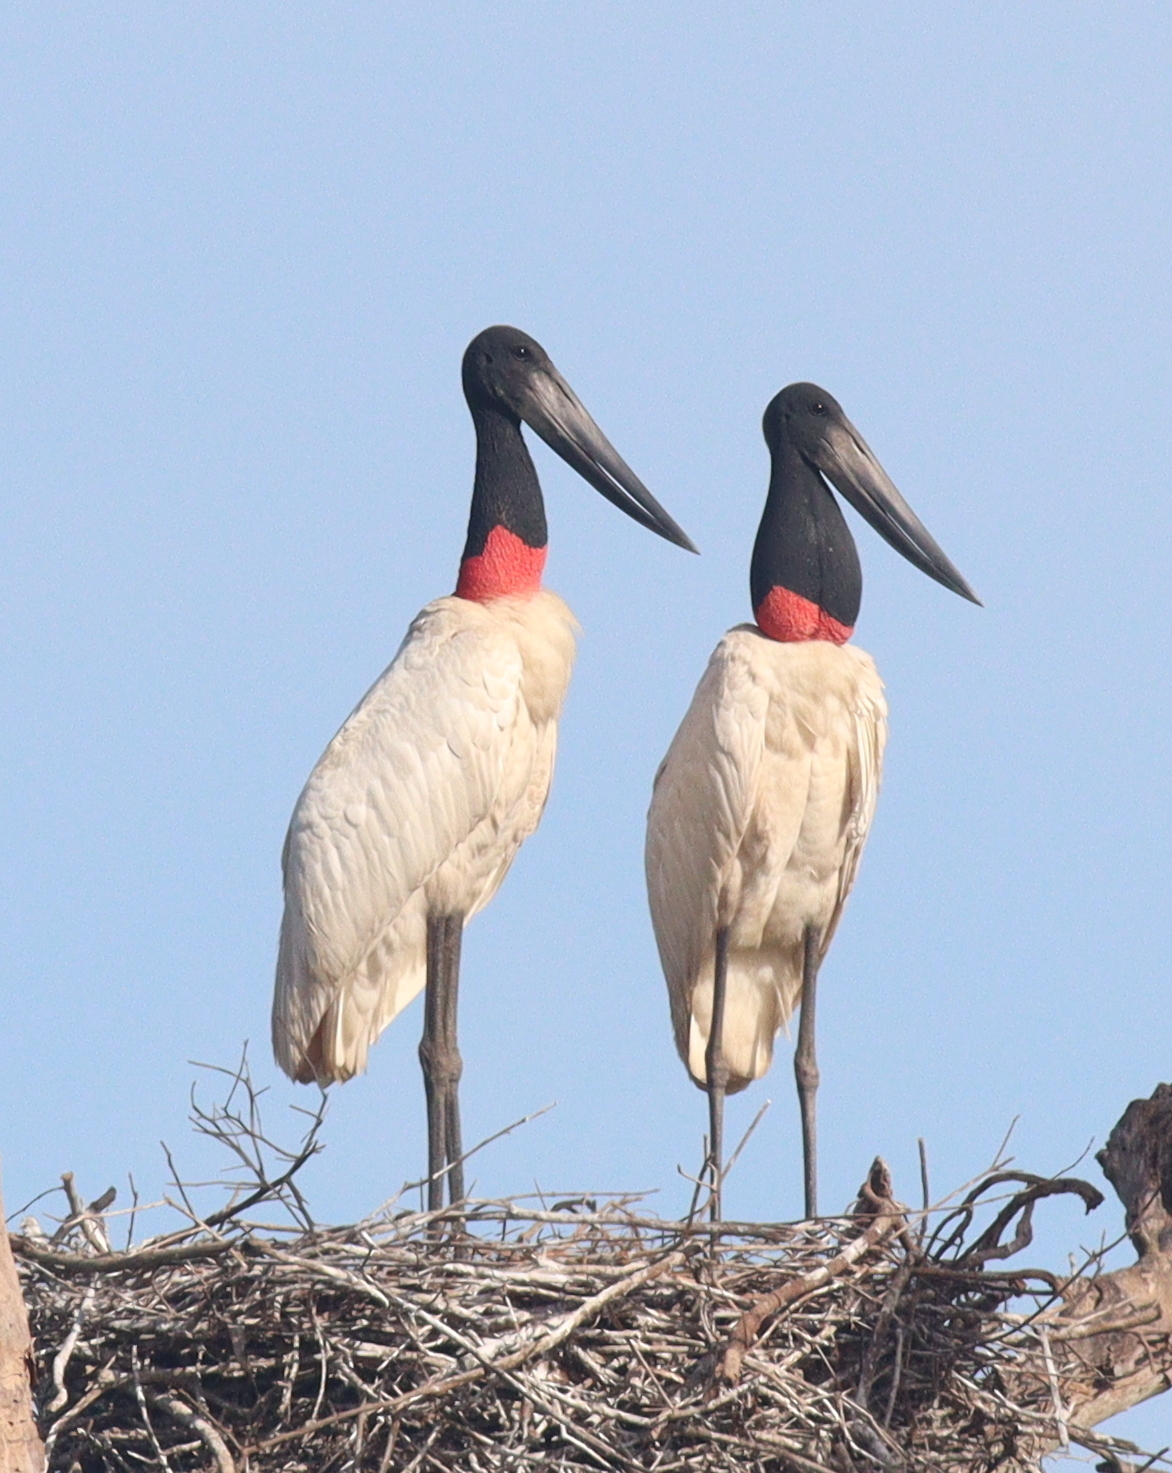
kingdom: Animalia
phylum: Chordata
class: Aves
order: Ciconiiformes
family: Ciconiidae
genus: Jabiru
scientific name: Jabiru mycteria
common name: Jabiru
